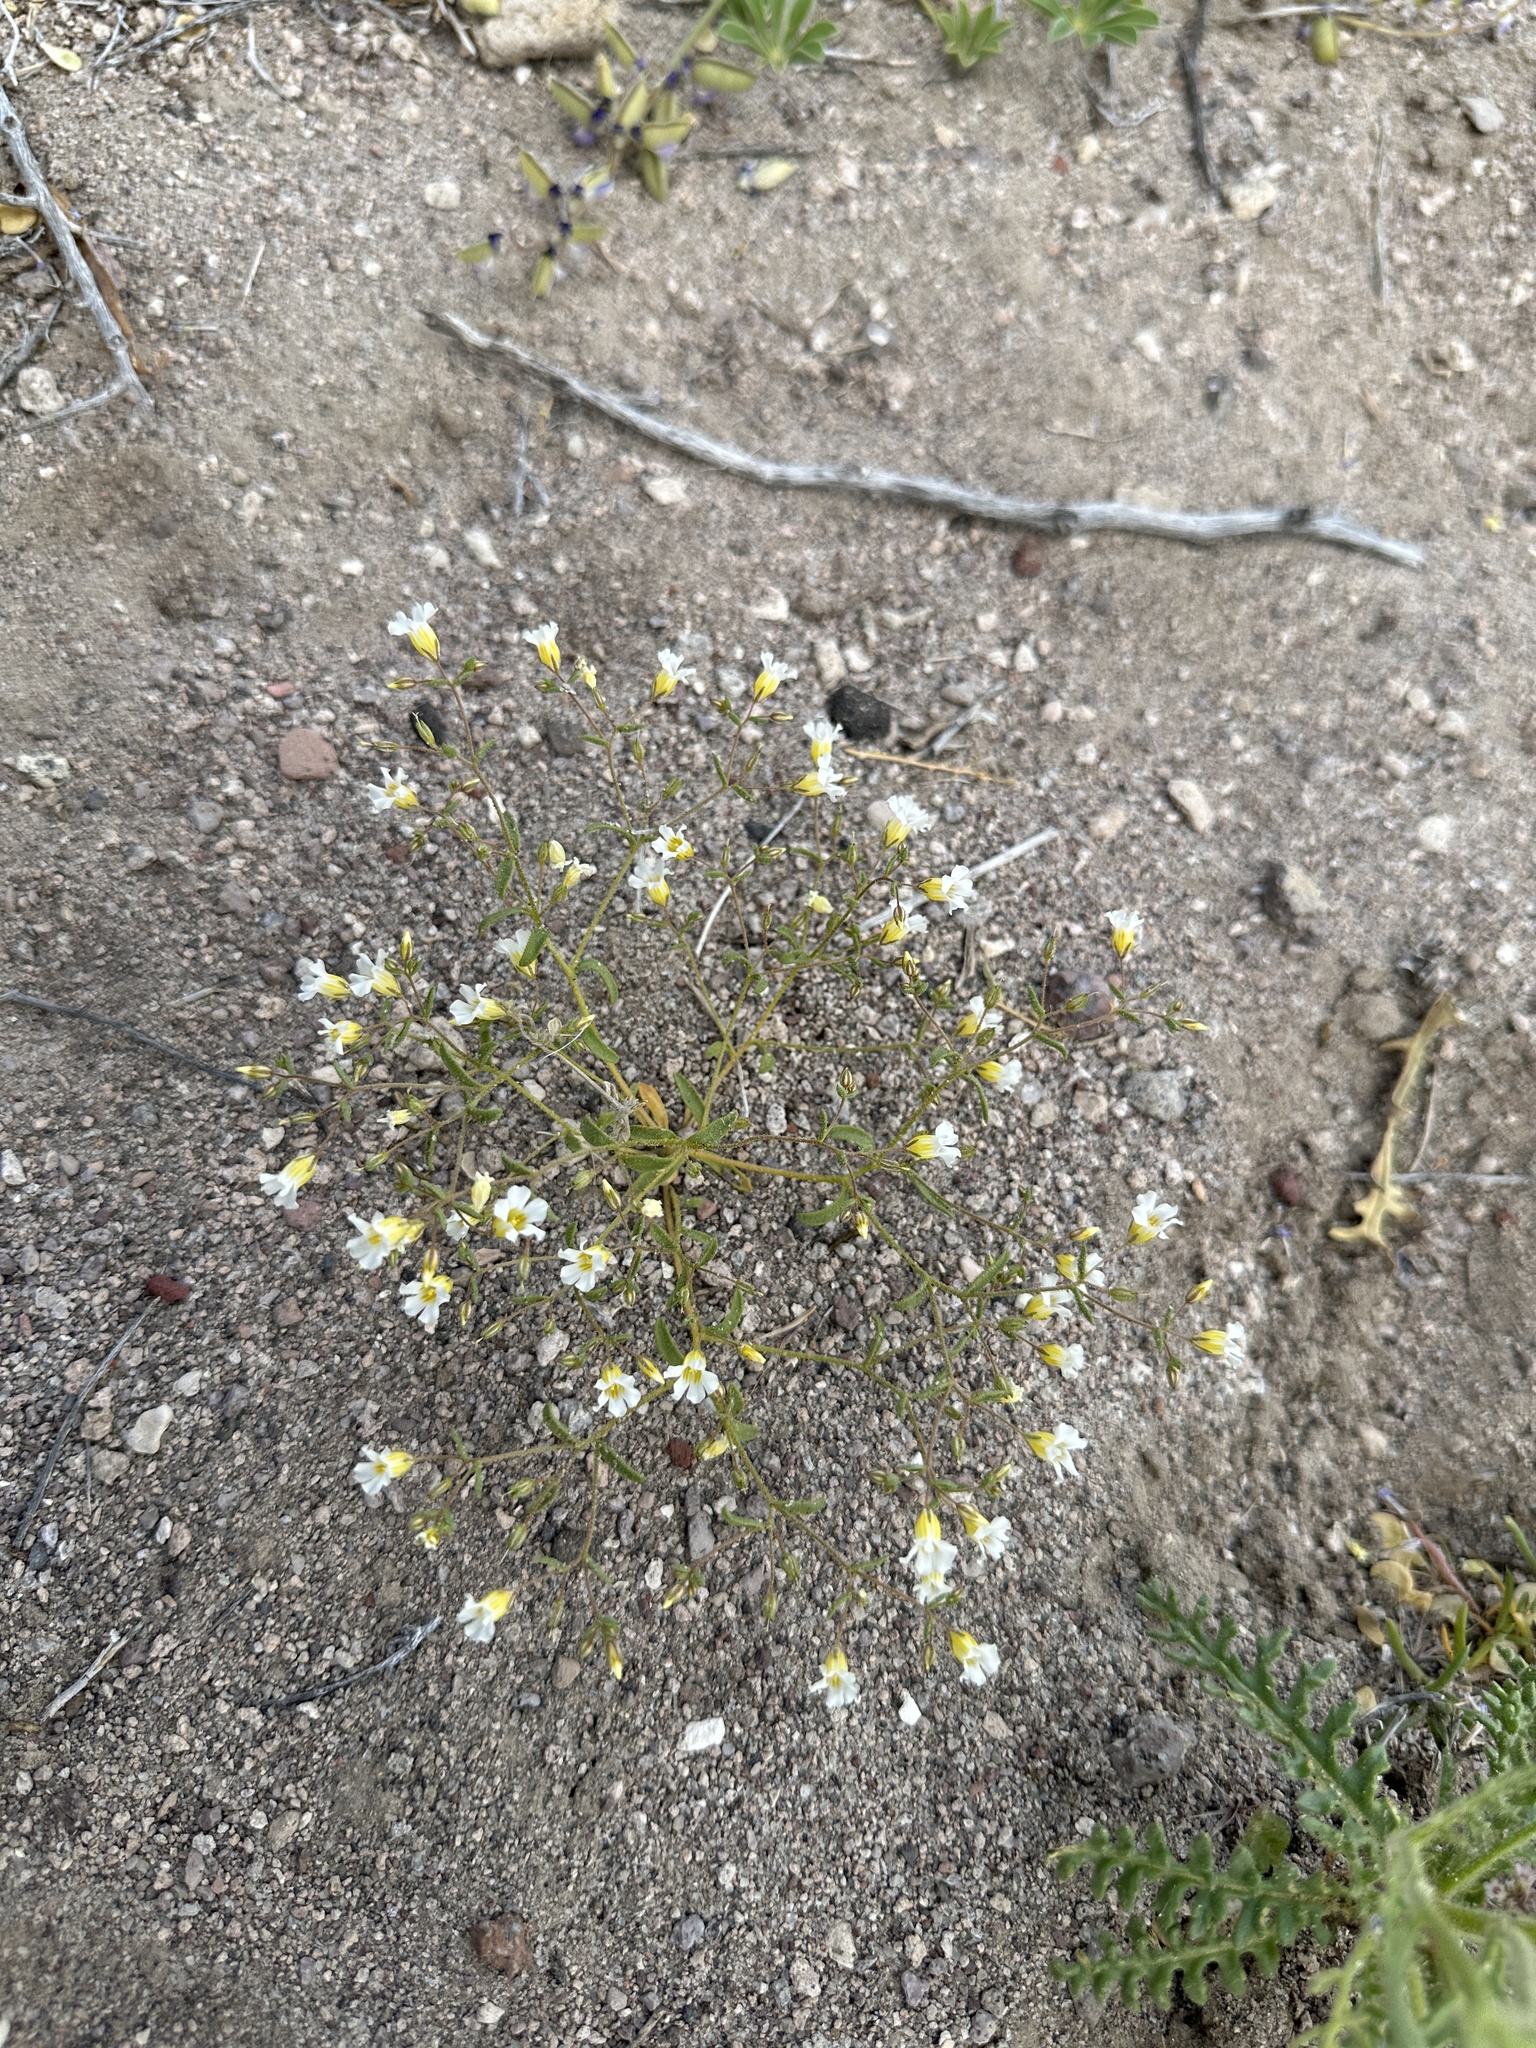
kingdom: Plantae
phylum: Tracheophyta
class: Magnoliopsida
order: Ericales
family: Polemoniaceae
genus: Linanthus
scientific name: Linanthus campanulatus
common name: Bellshape gilia
